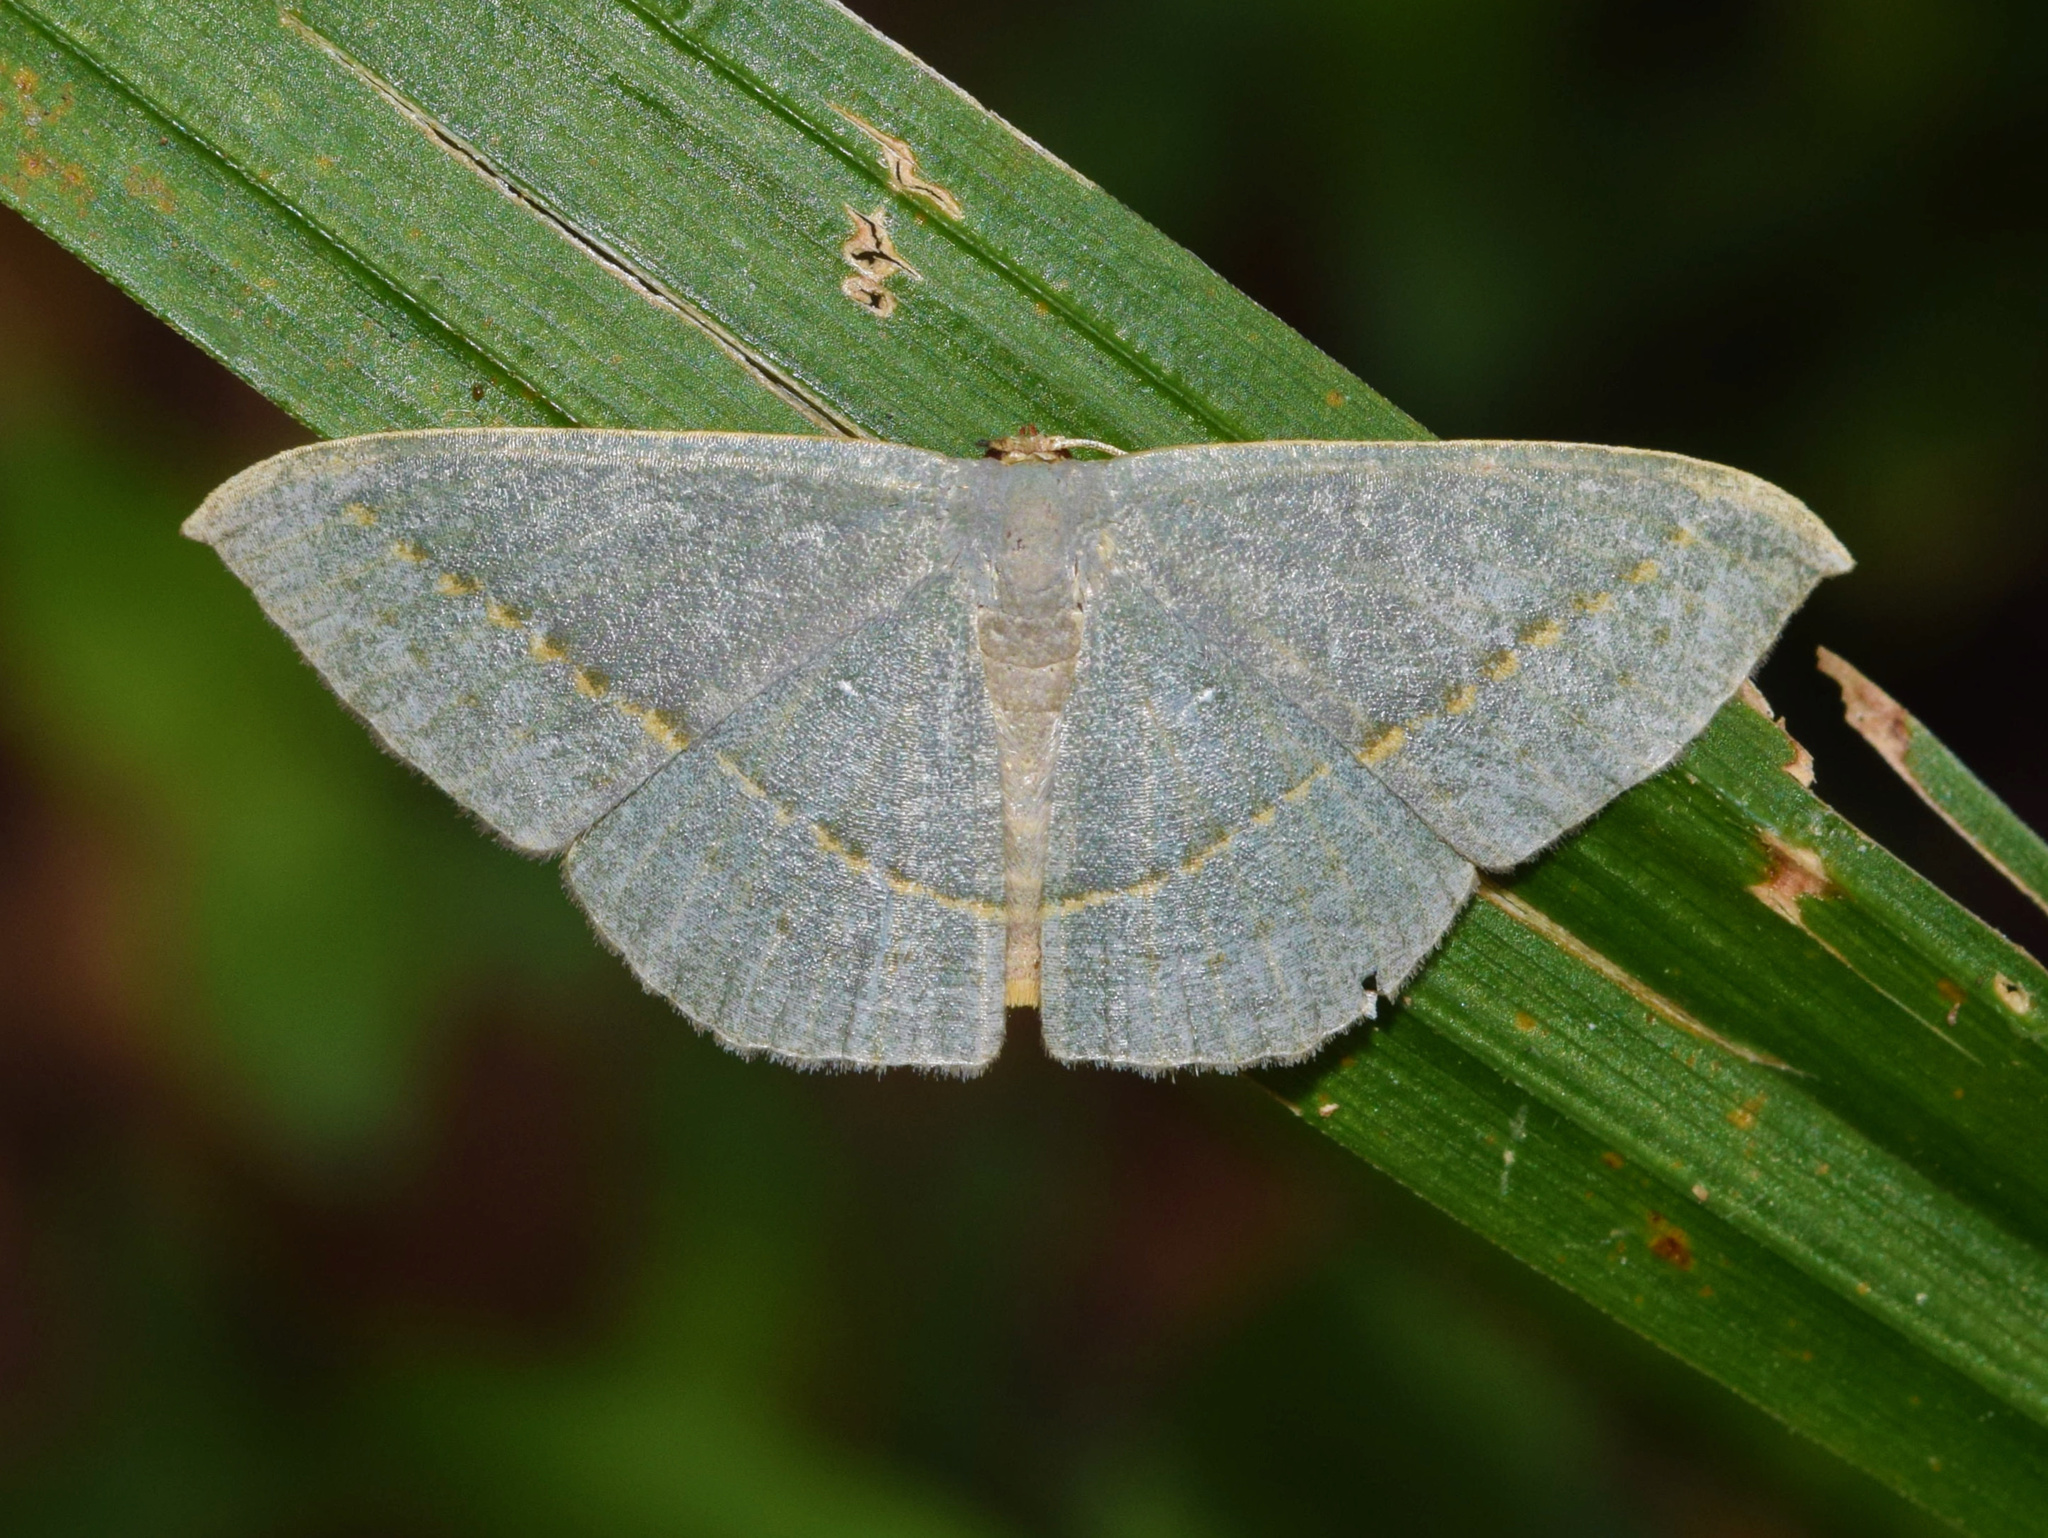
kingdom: Animalia
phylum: Arthropoda
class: Insecta
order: Lepidoptera
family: Geometridae
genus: Traminda
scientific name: Traminda obversata
